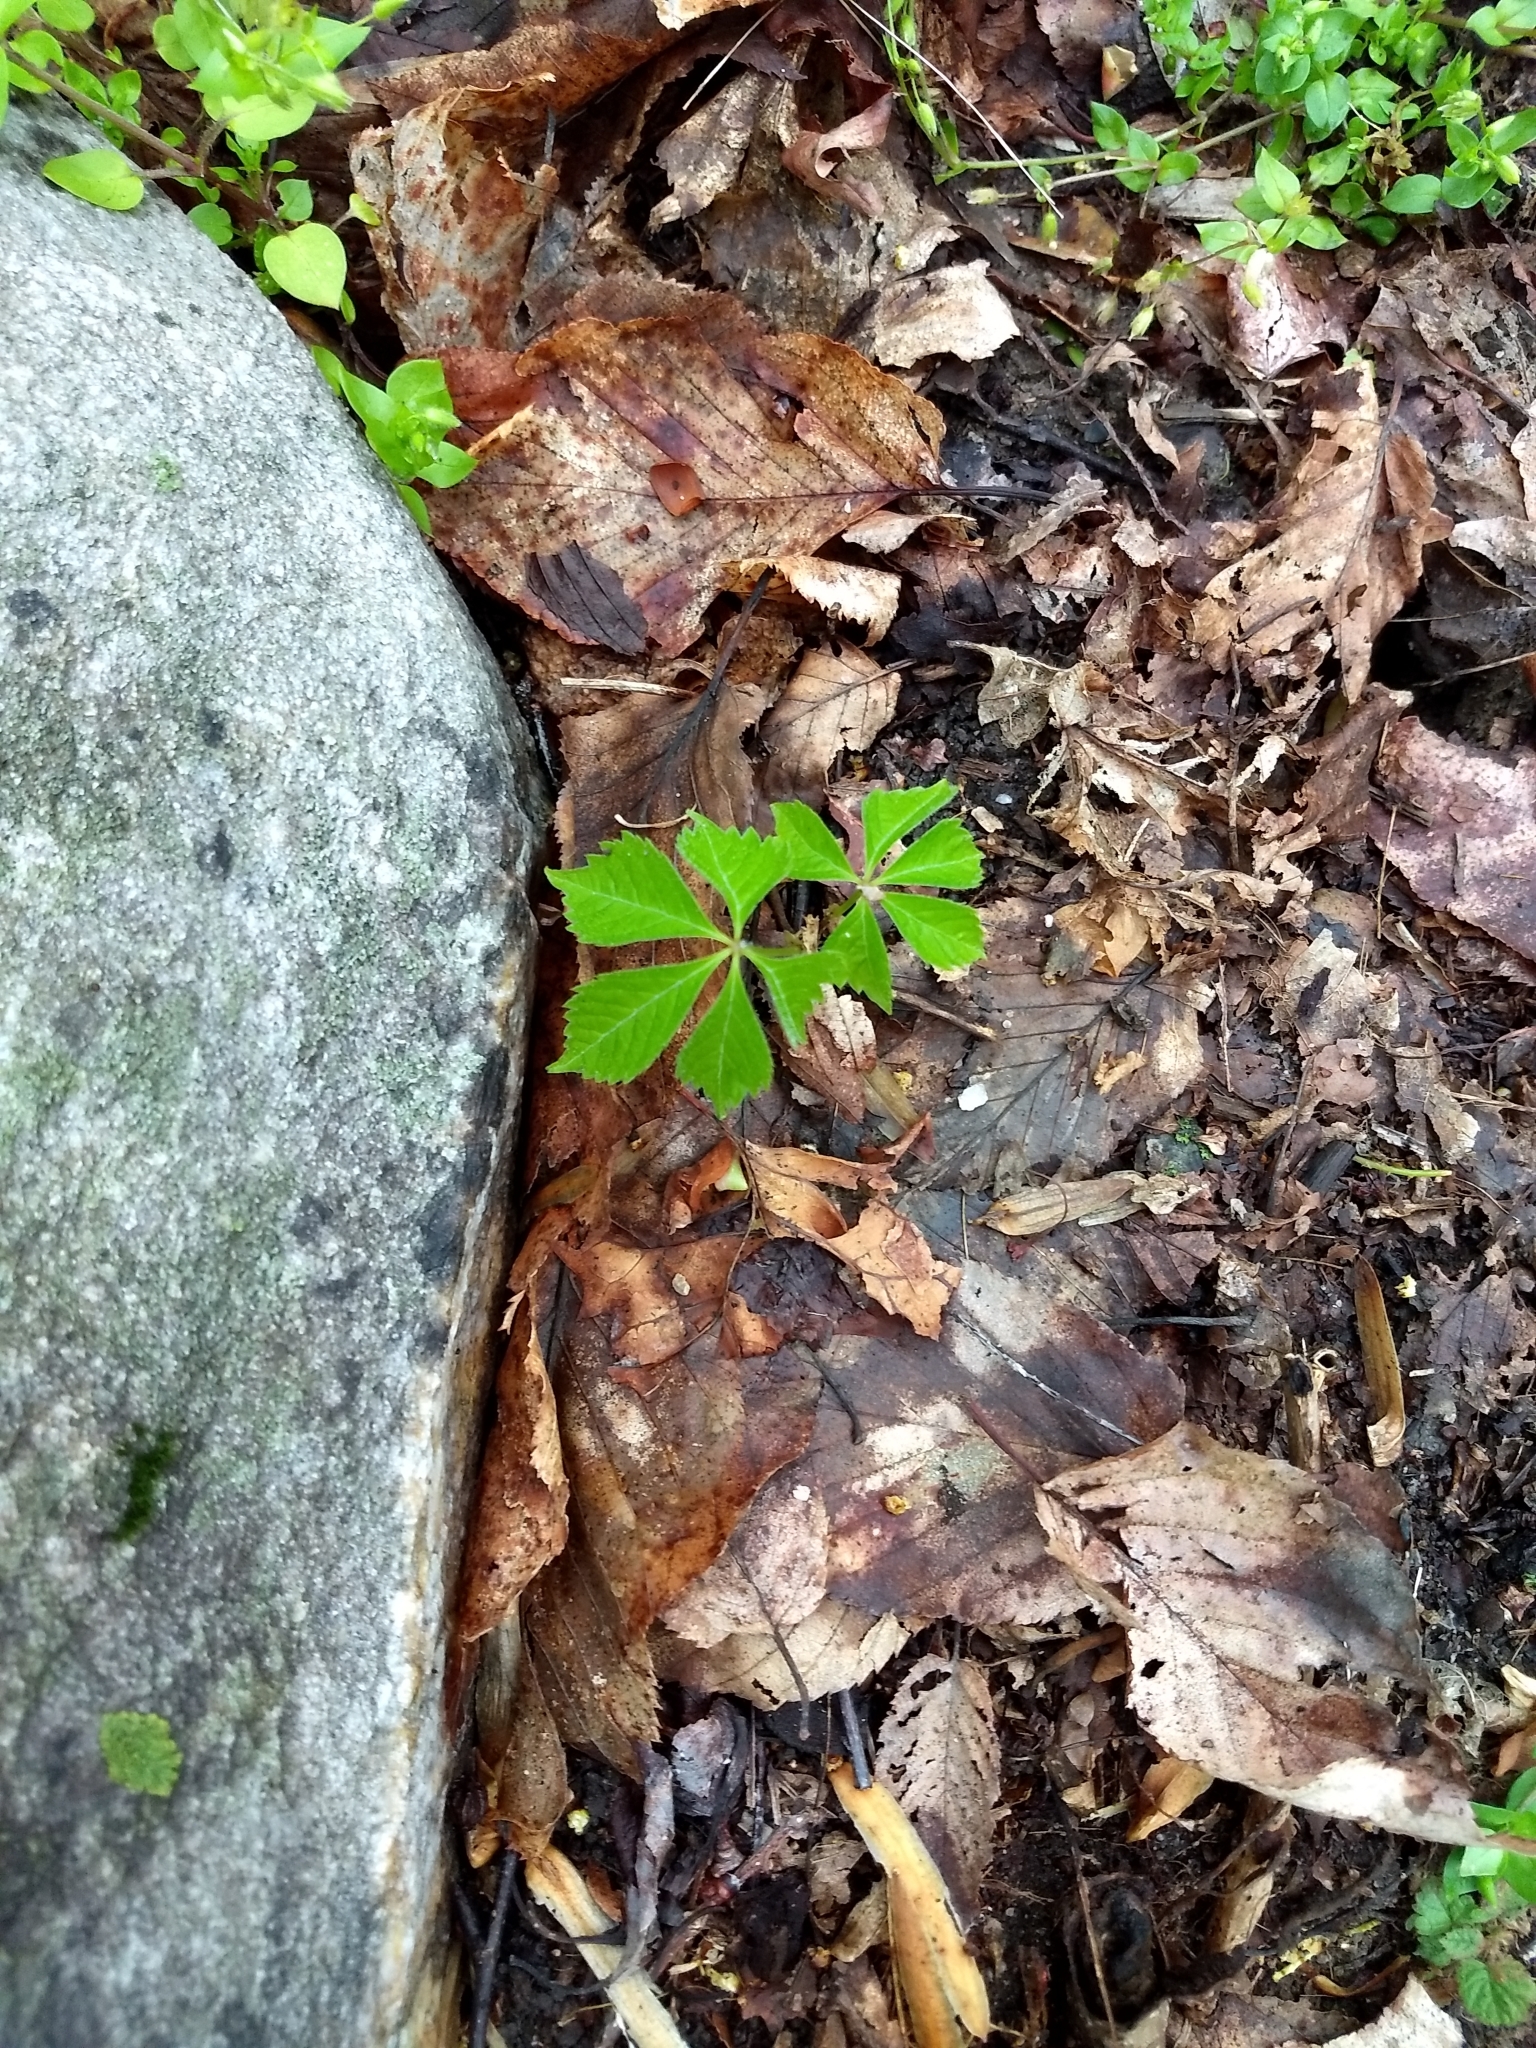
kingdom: Plantae
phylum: Tracheophyta
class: Magnoliopsida
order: Vitales
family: Vitaceae
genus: Parthenocissus
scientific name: Parthenocissus quinquefolia
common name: Virginia-creeper
